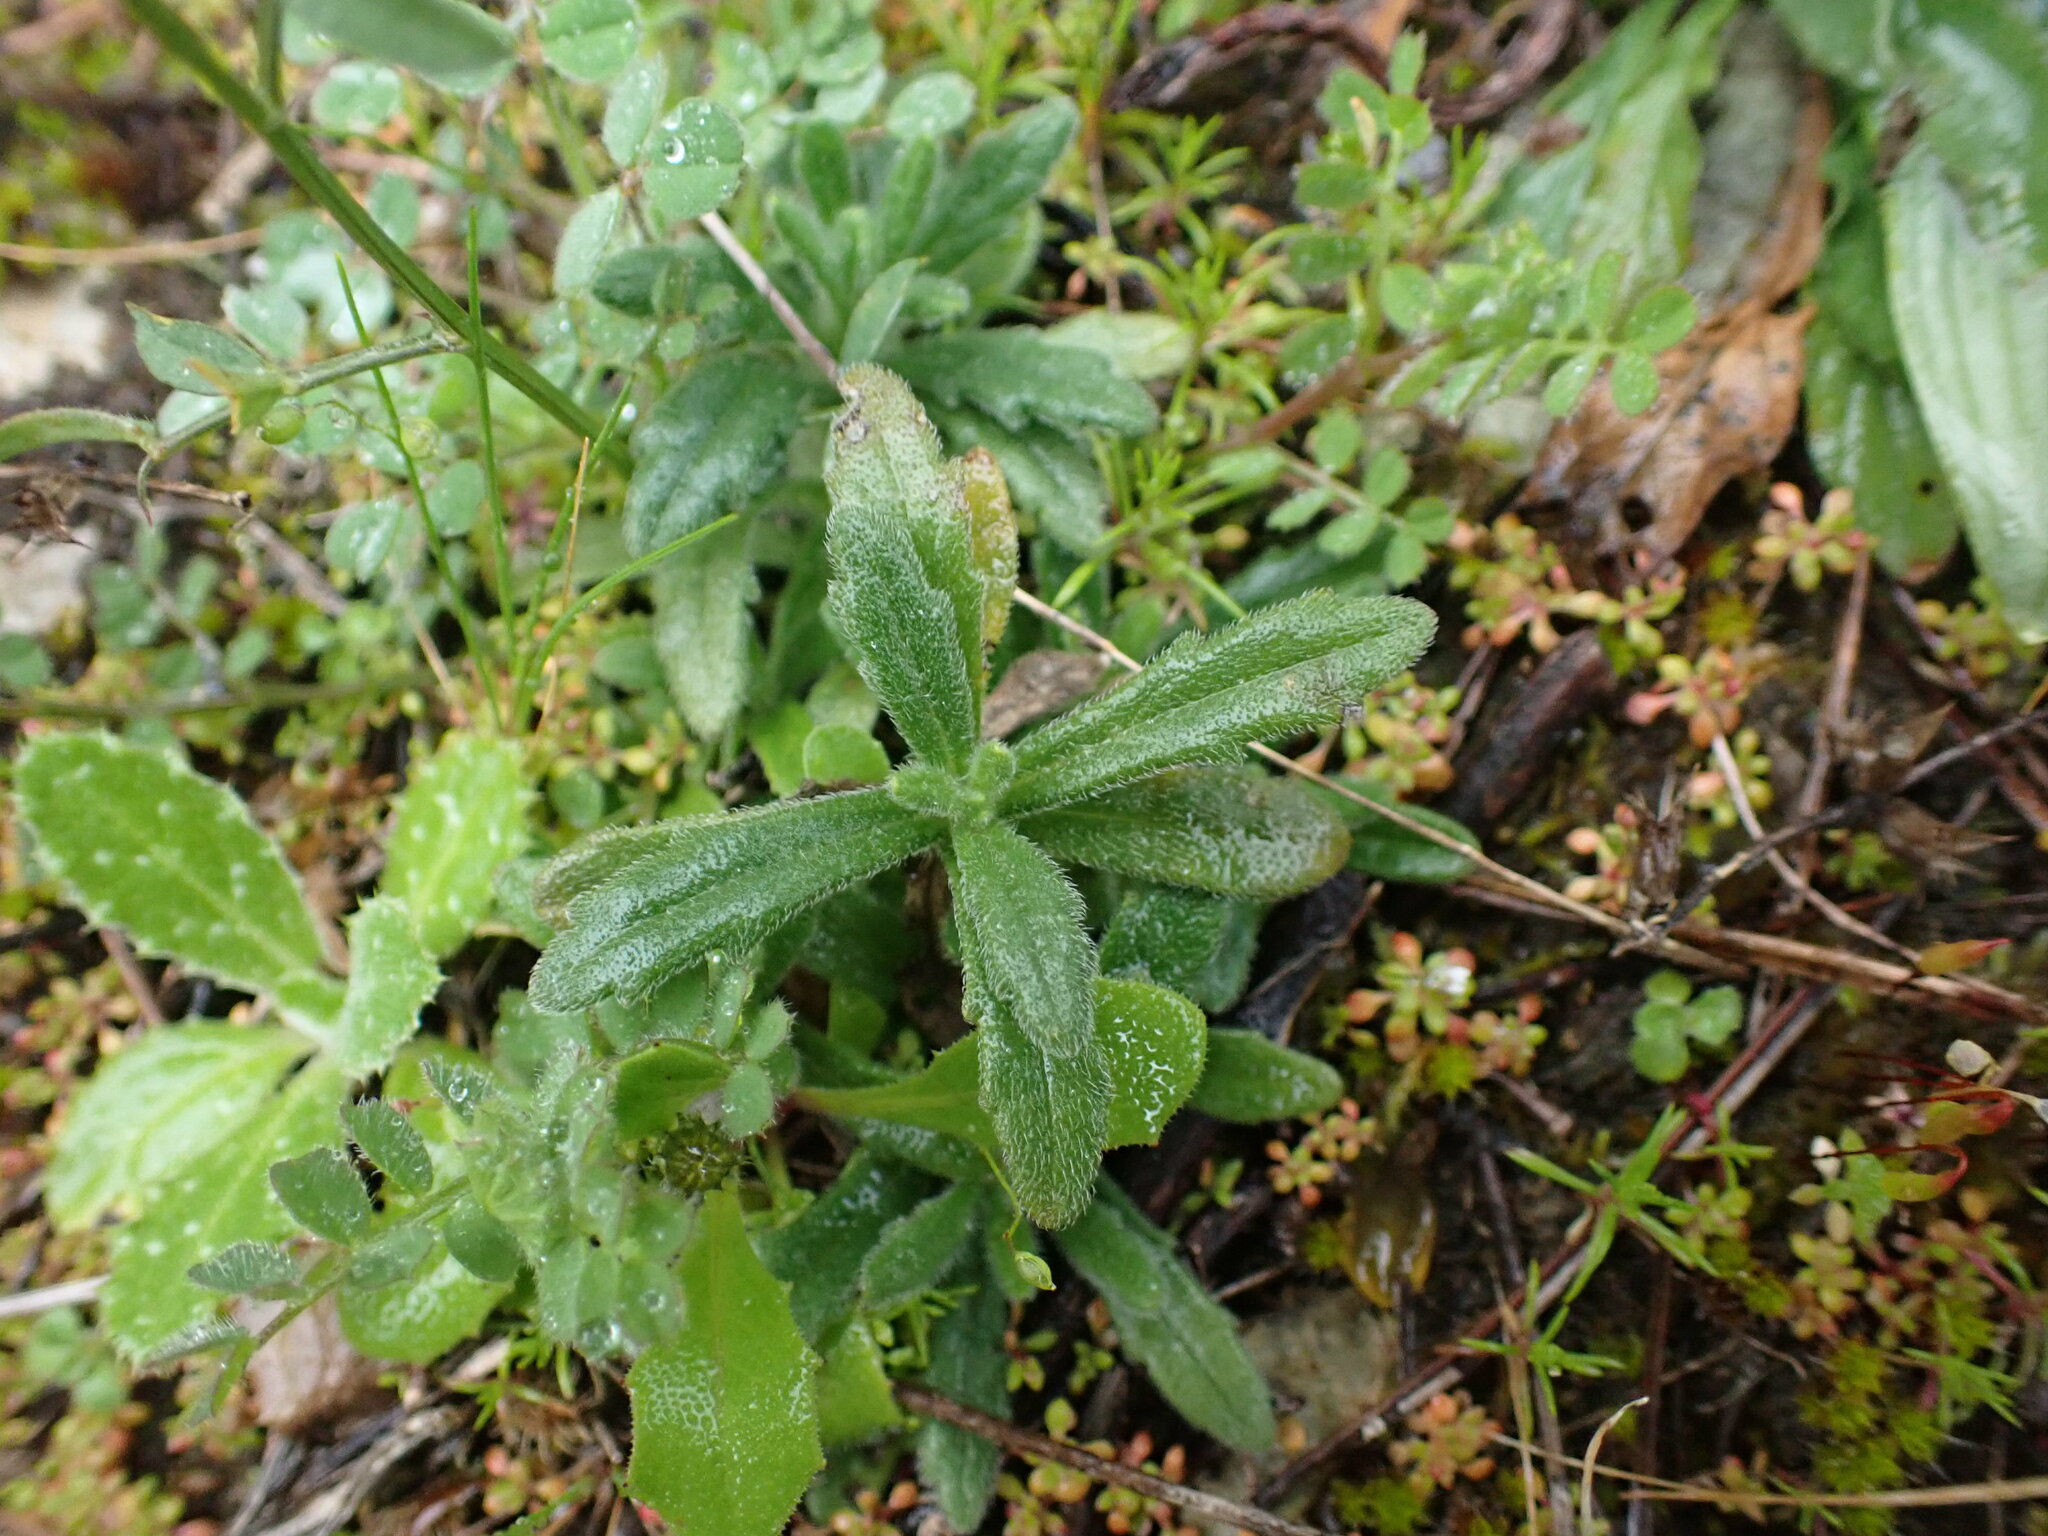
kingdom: Plantae
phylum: Tracheophyta
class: Magnoliopsida
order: Lamiales
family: Lamiaceae
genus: Ajuga
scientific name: Ajuga iva
